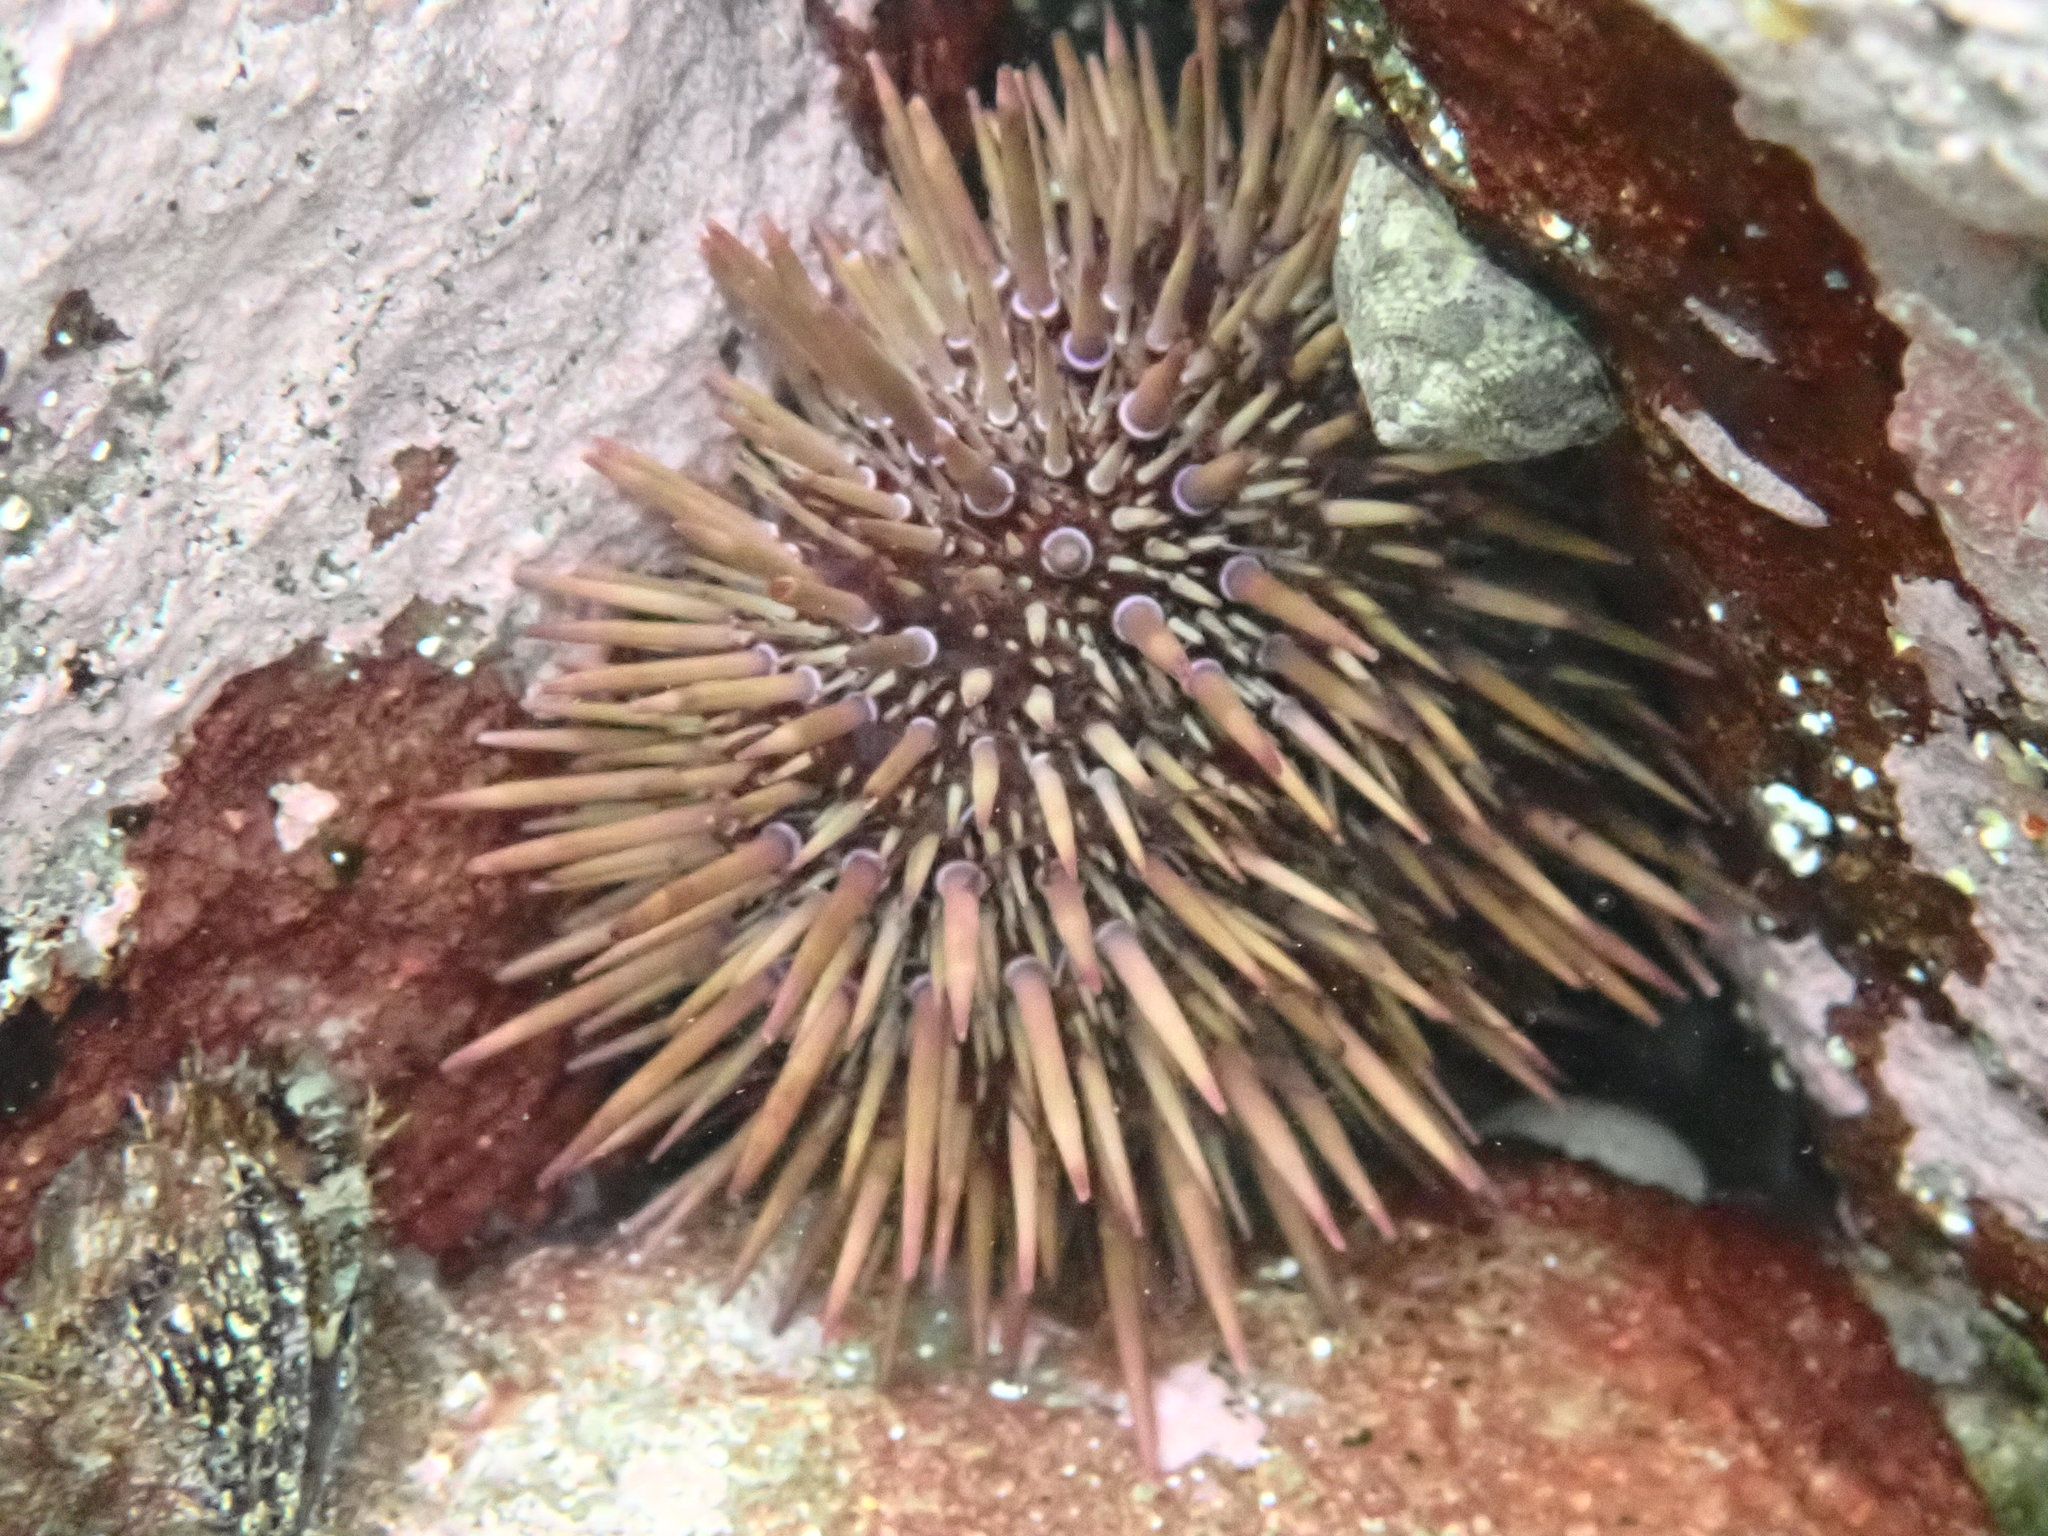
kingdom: Animalia
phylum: Echinodermata
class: Echinoidea
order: Camarodonta
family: Echinometridae
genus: Heliocidaris
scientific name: Heliocidaris erythrogramma
